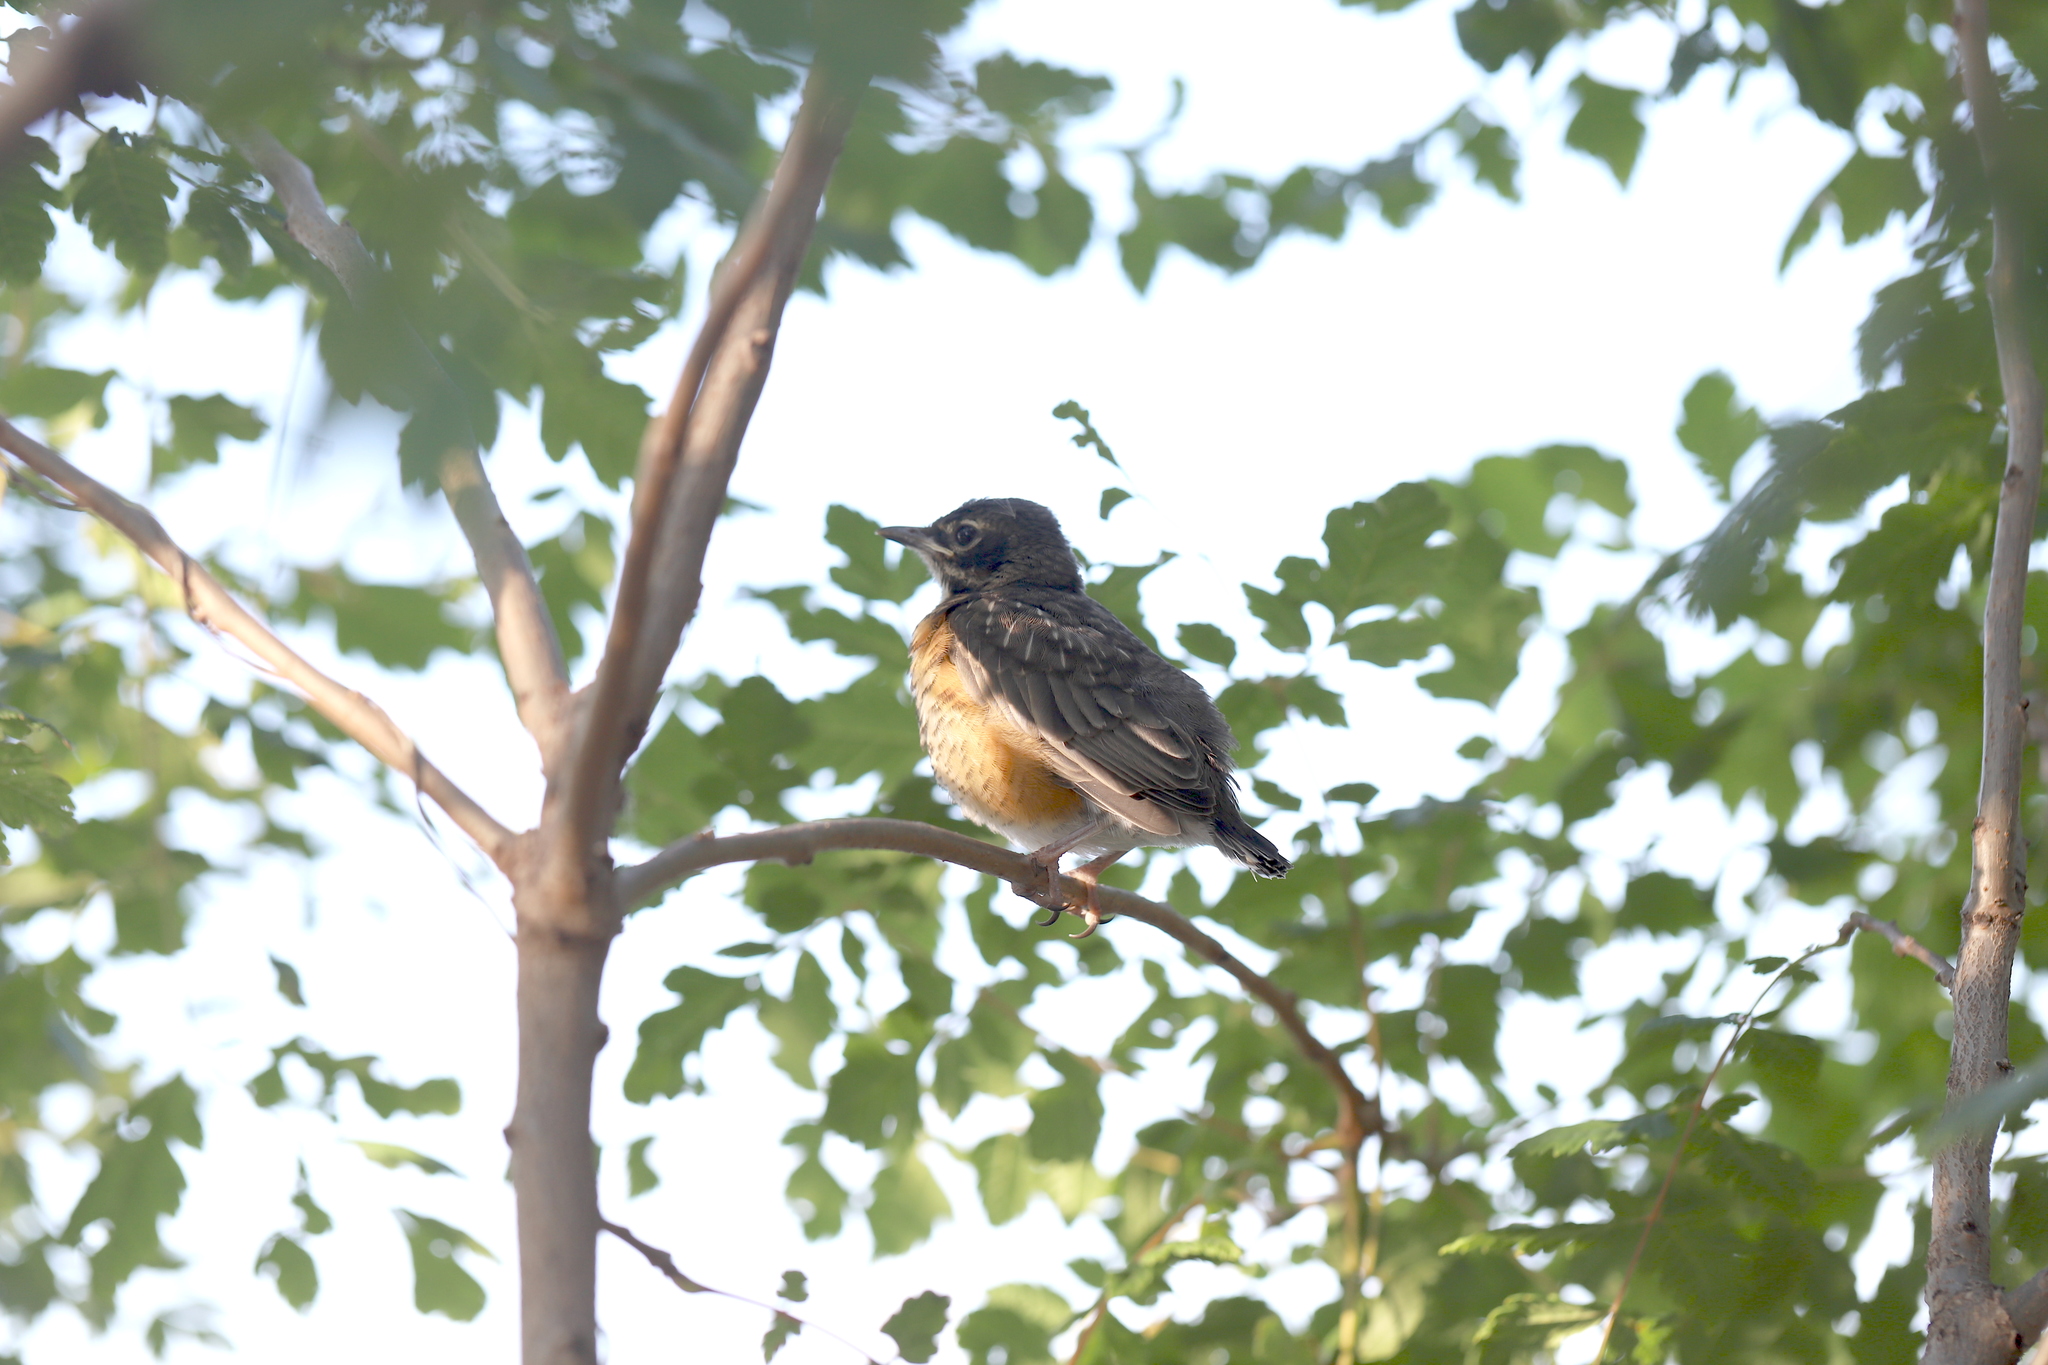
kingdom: Animalia
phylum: Chordata
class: Aves
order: Passeriformes
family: Turdidae
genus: Turdus
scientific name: Turdus migratorius
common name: American robin
